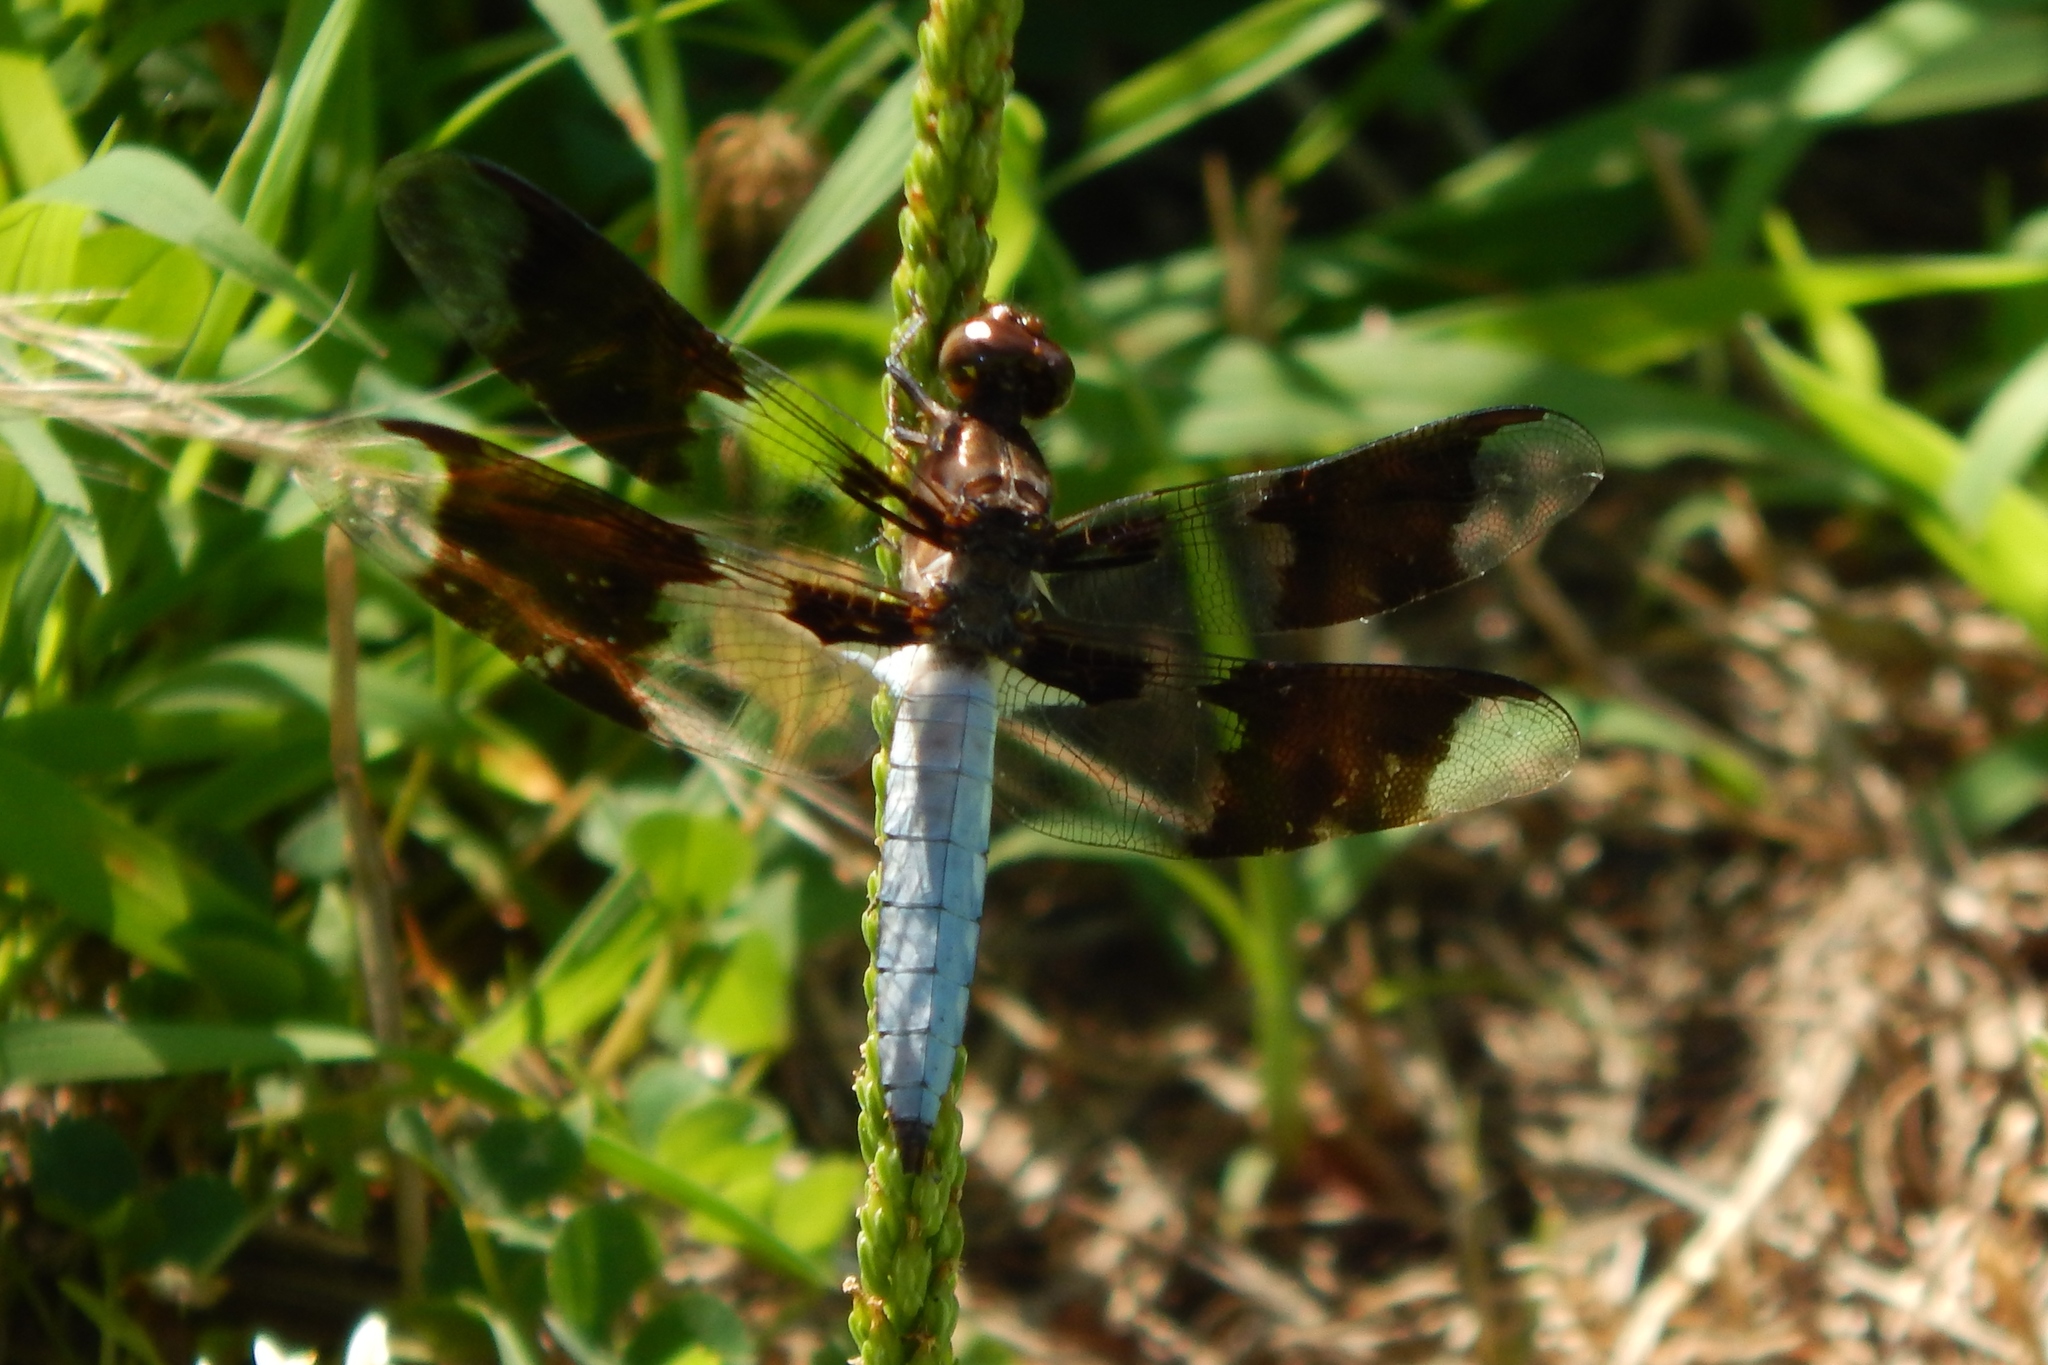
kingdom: Animalia
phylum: Arthropoda
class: Insecta
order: Odonata
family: Libellulidae
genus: Plathemis
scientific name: Plathemis lydia
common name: Common whitetail
